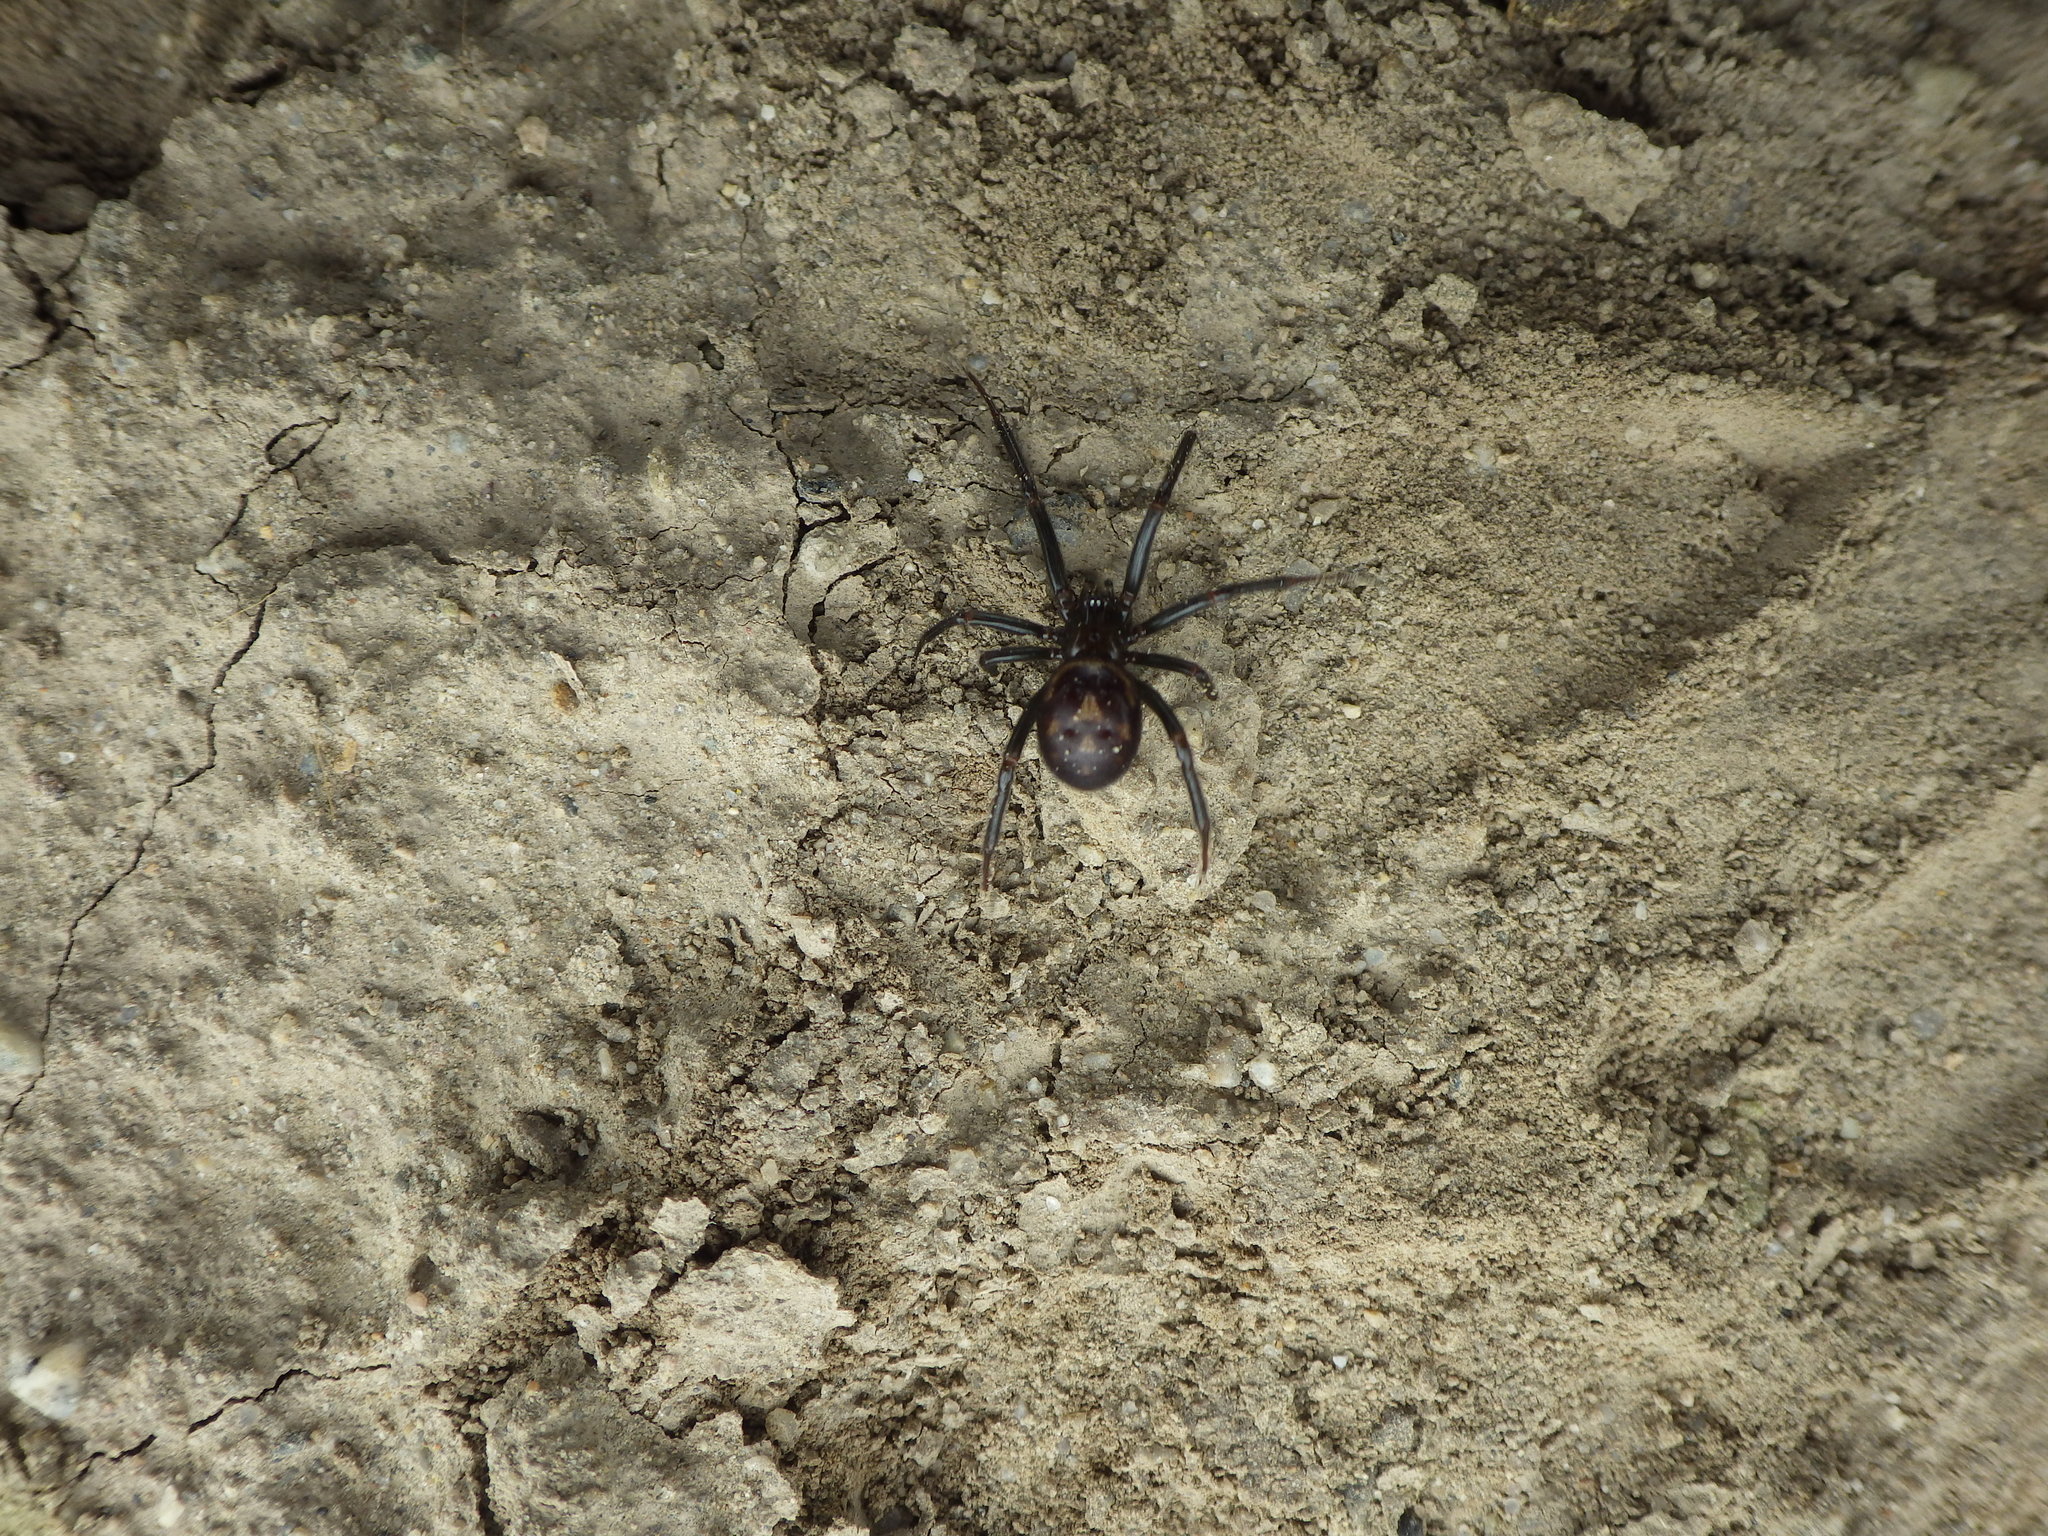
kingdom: Animalia
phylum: Arthropoda
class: Arachnida
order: Araneae
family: Theridiidae
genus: Steatoda
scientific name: Steatoda grossa
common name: False black widow
